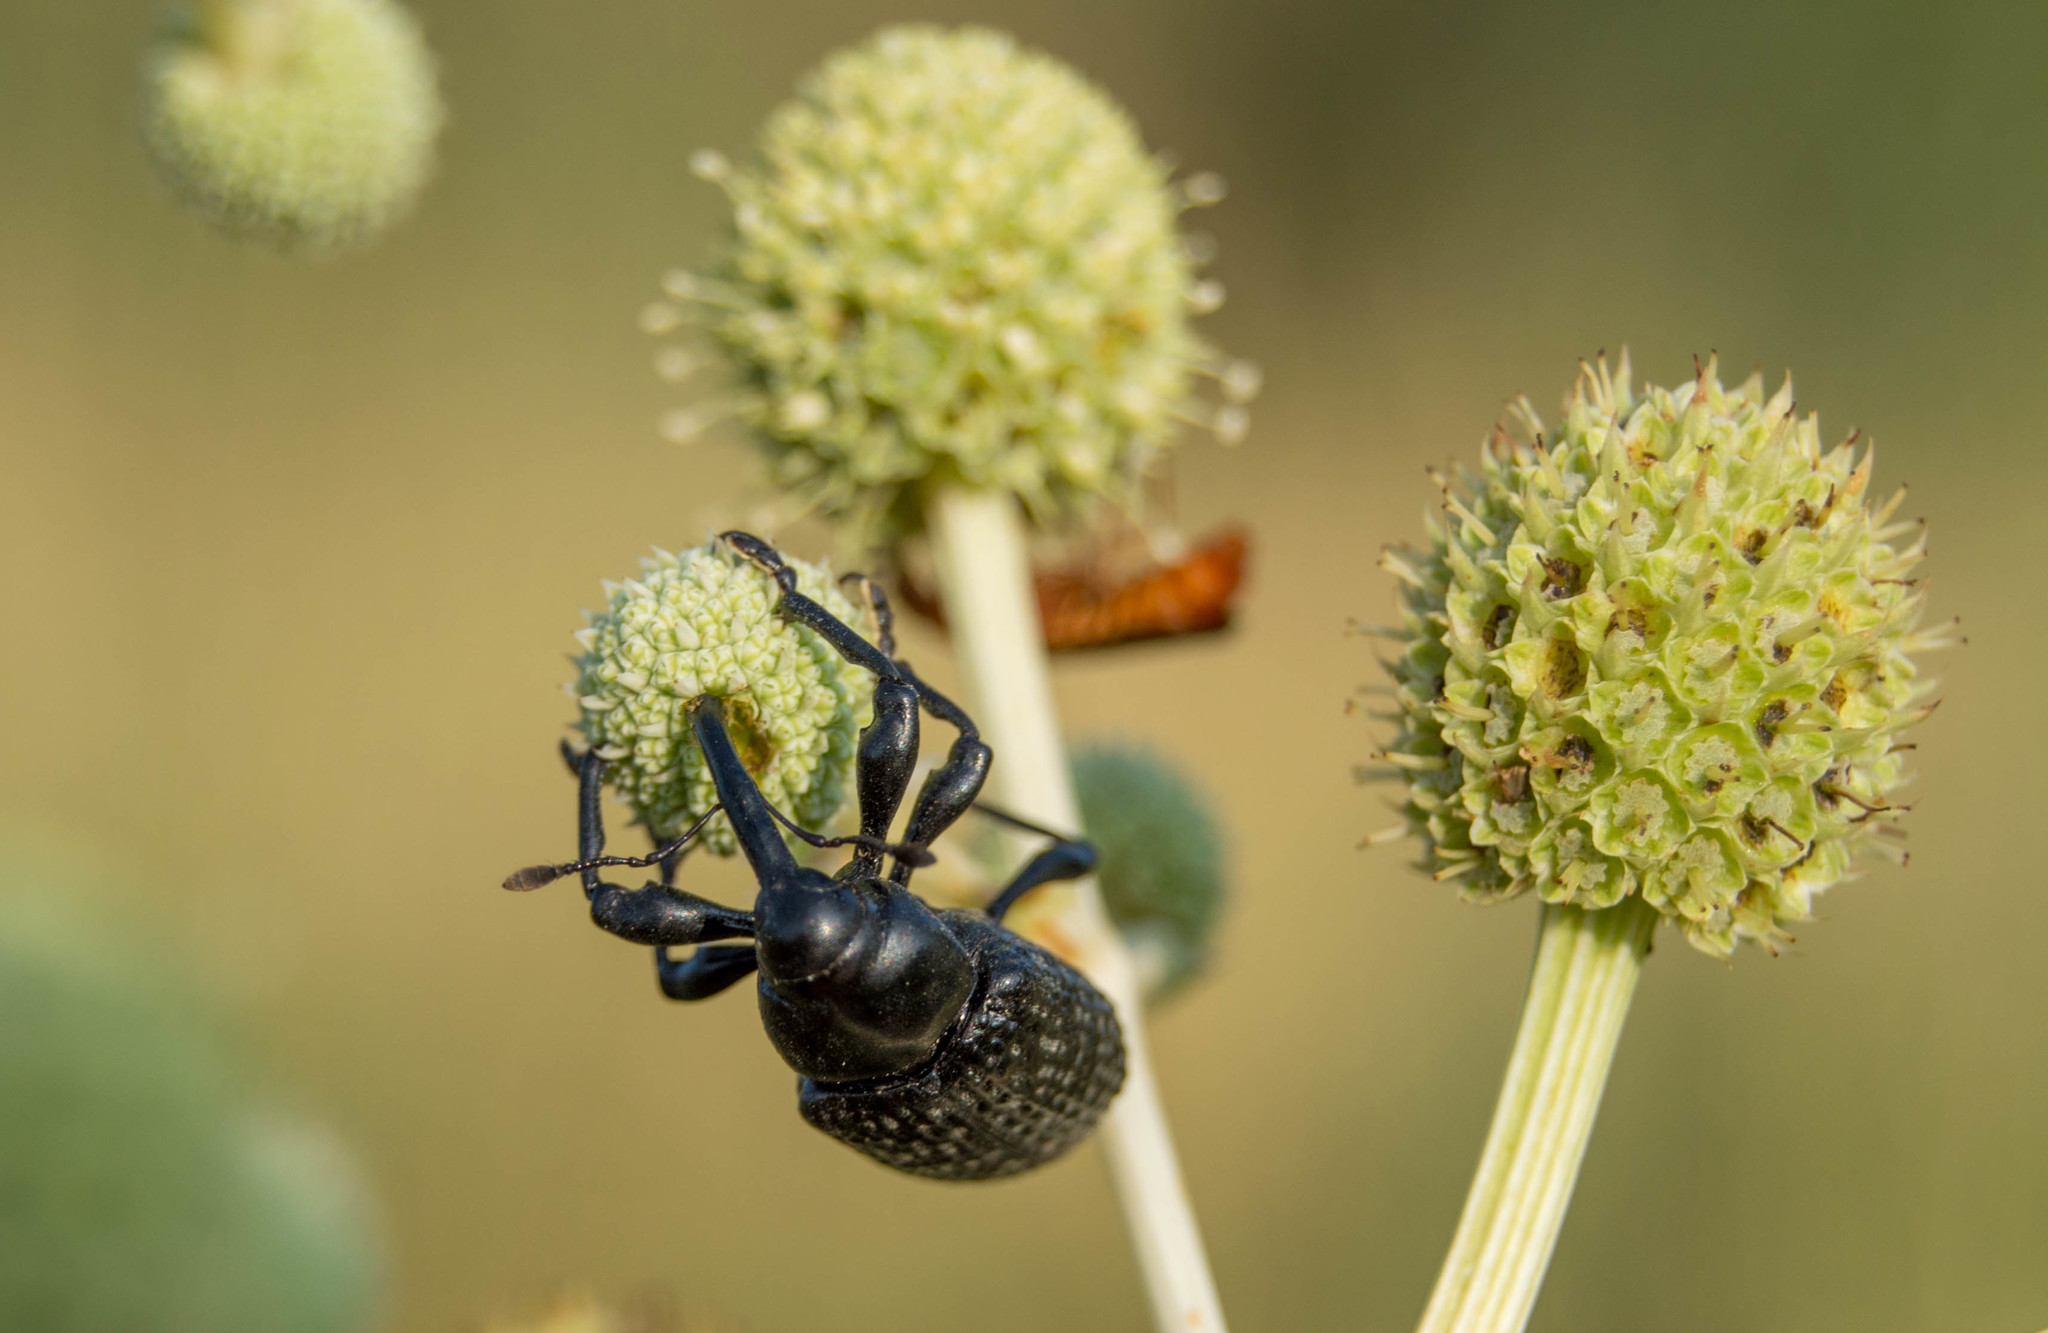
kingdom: Animalia
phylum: Arthropoda
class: Insecta
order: Coleoptera
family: Curculionidae
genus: Heilipodus
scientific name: Heilipodus scabripennis
